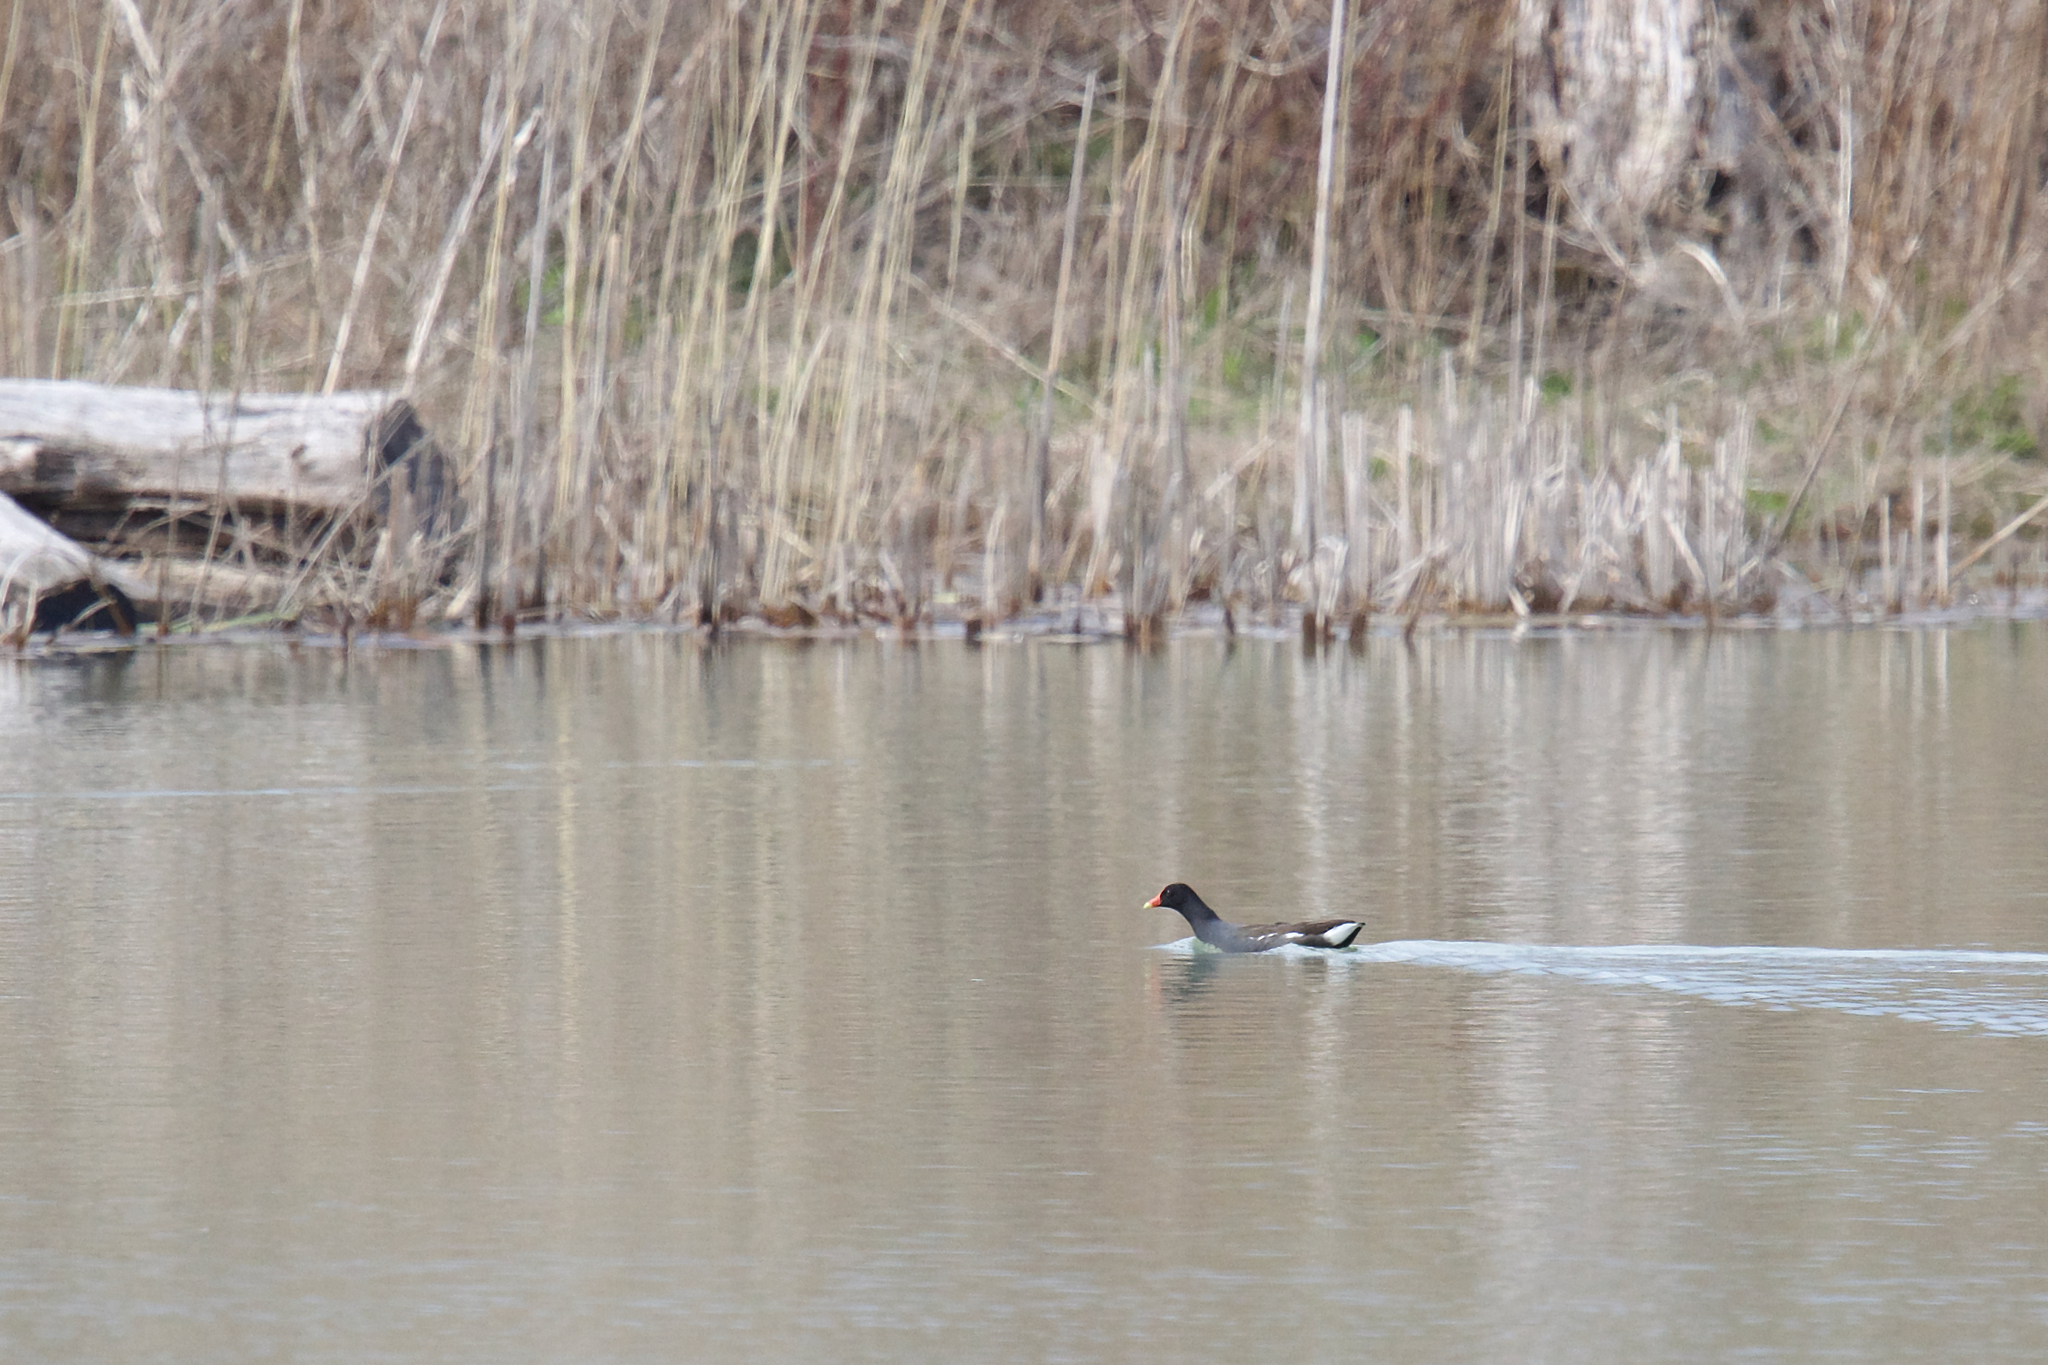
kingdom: Animalia
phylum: Chordata
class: Aves
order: Gruiformes
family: Rallidae
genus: Gallinula
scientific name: Gallinula chloropus
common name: Common moorhen
